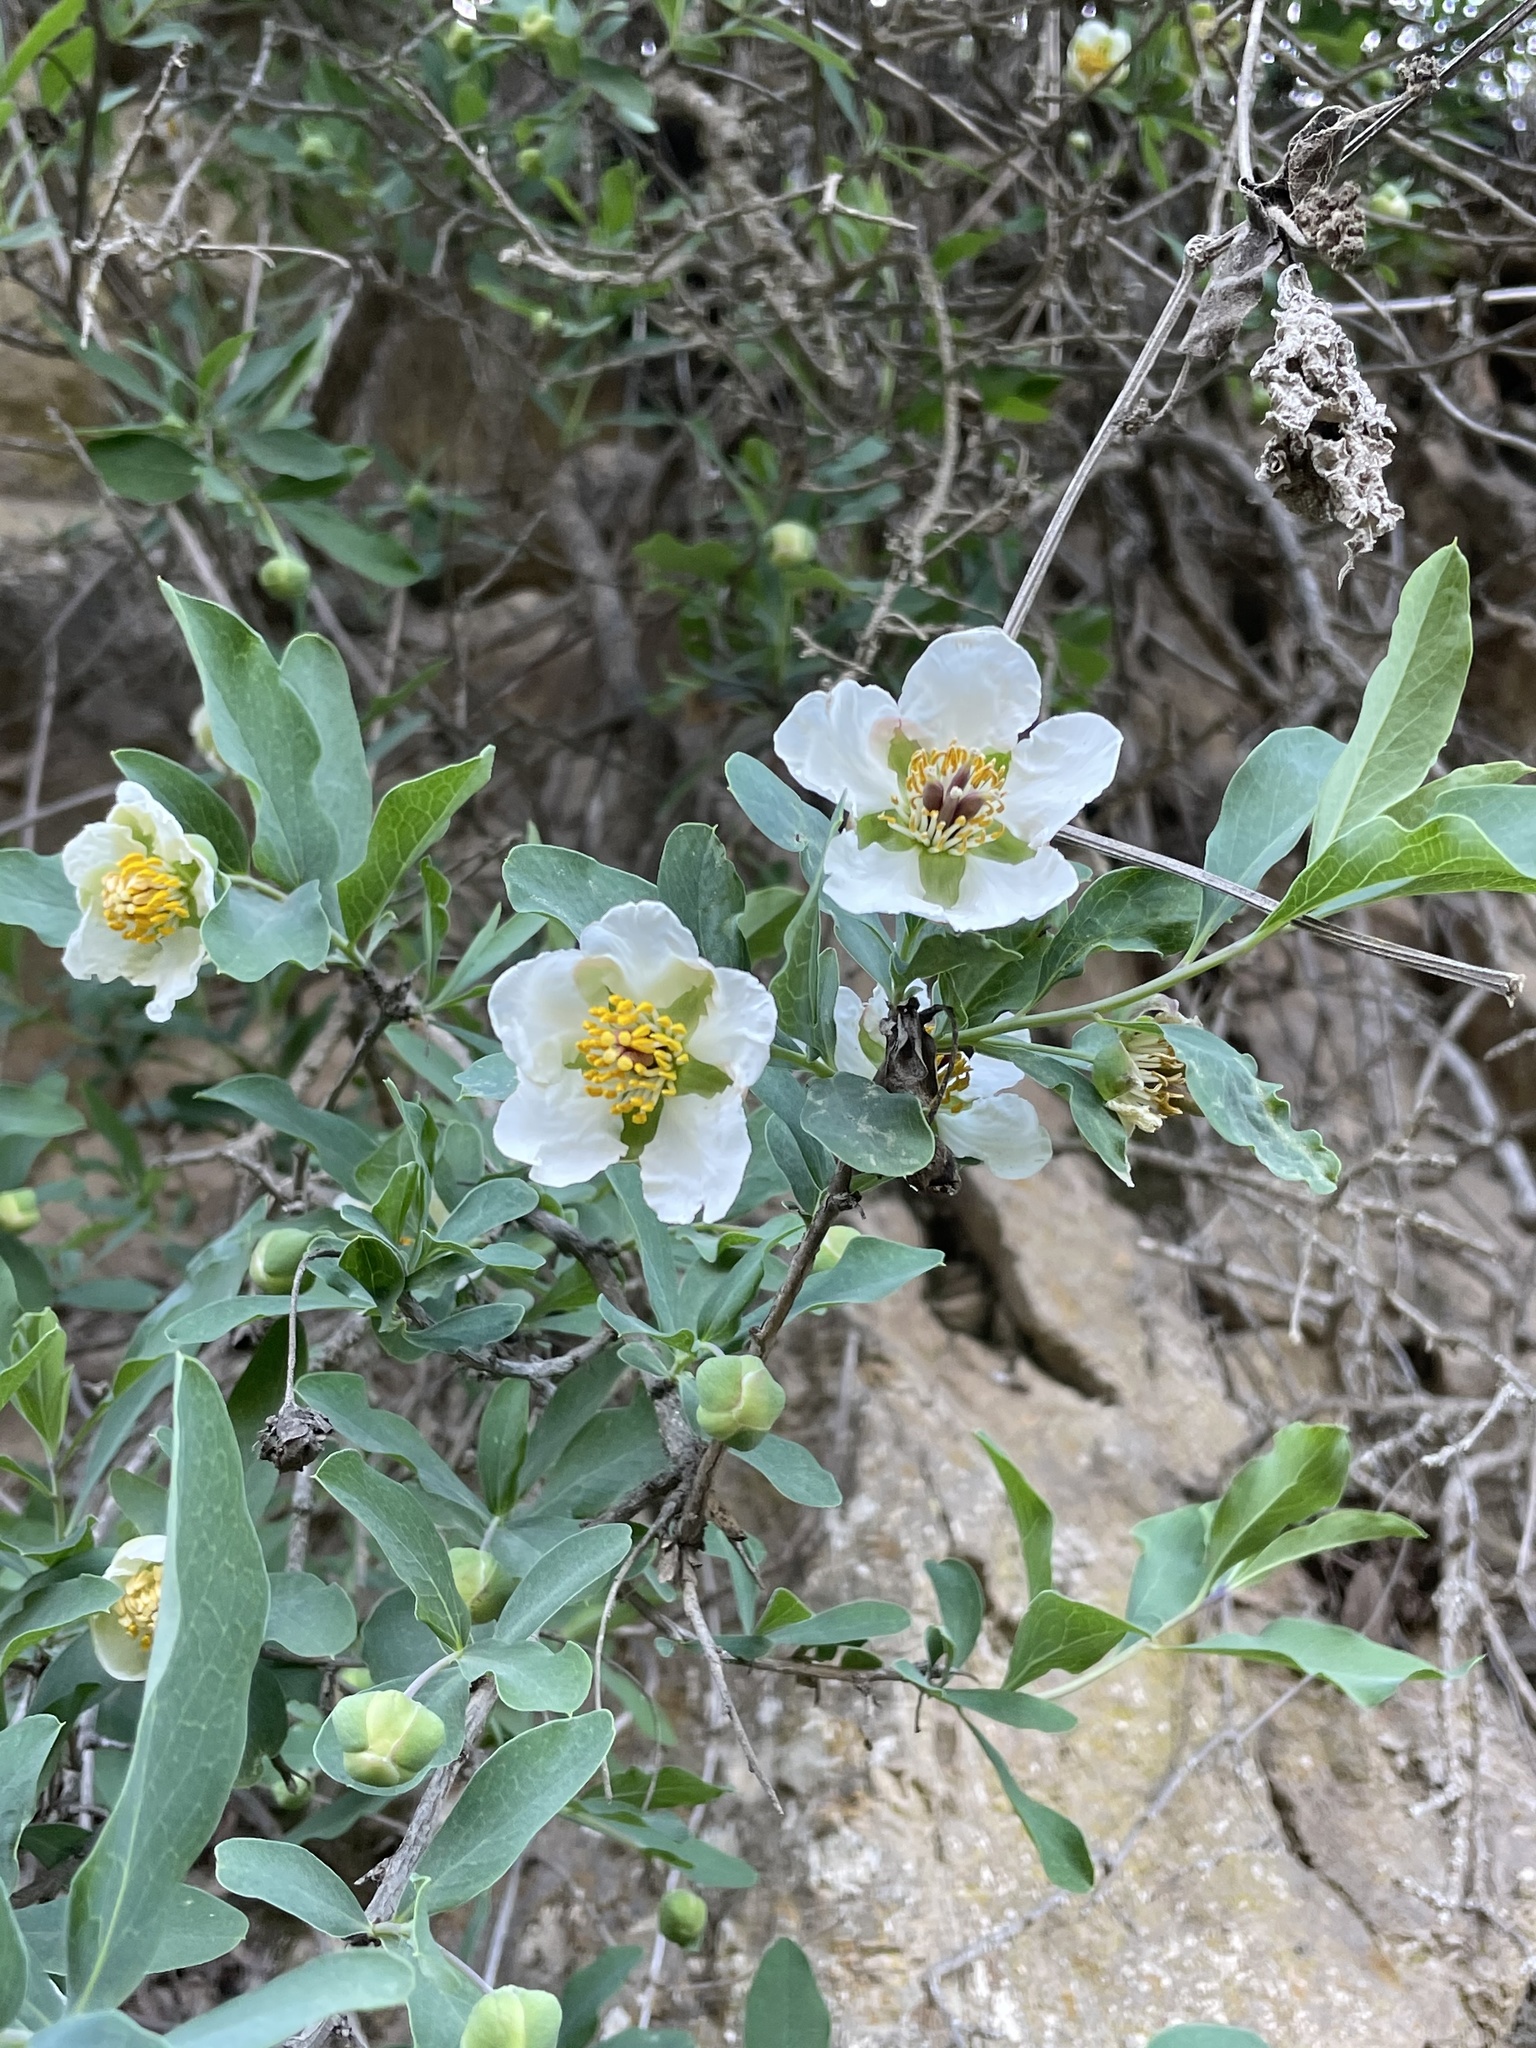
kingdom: Plantae
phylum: Tracheophyta
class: Magnoliopsida
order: Crossosomatales
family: Crossosomataceae
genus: Crossosoma
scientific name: Crossosoma californicum
